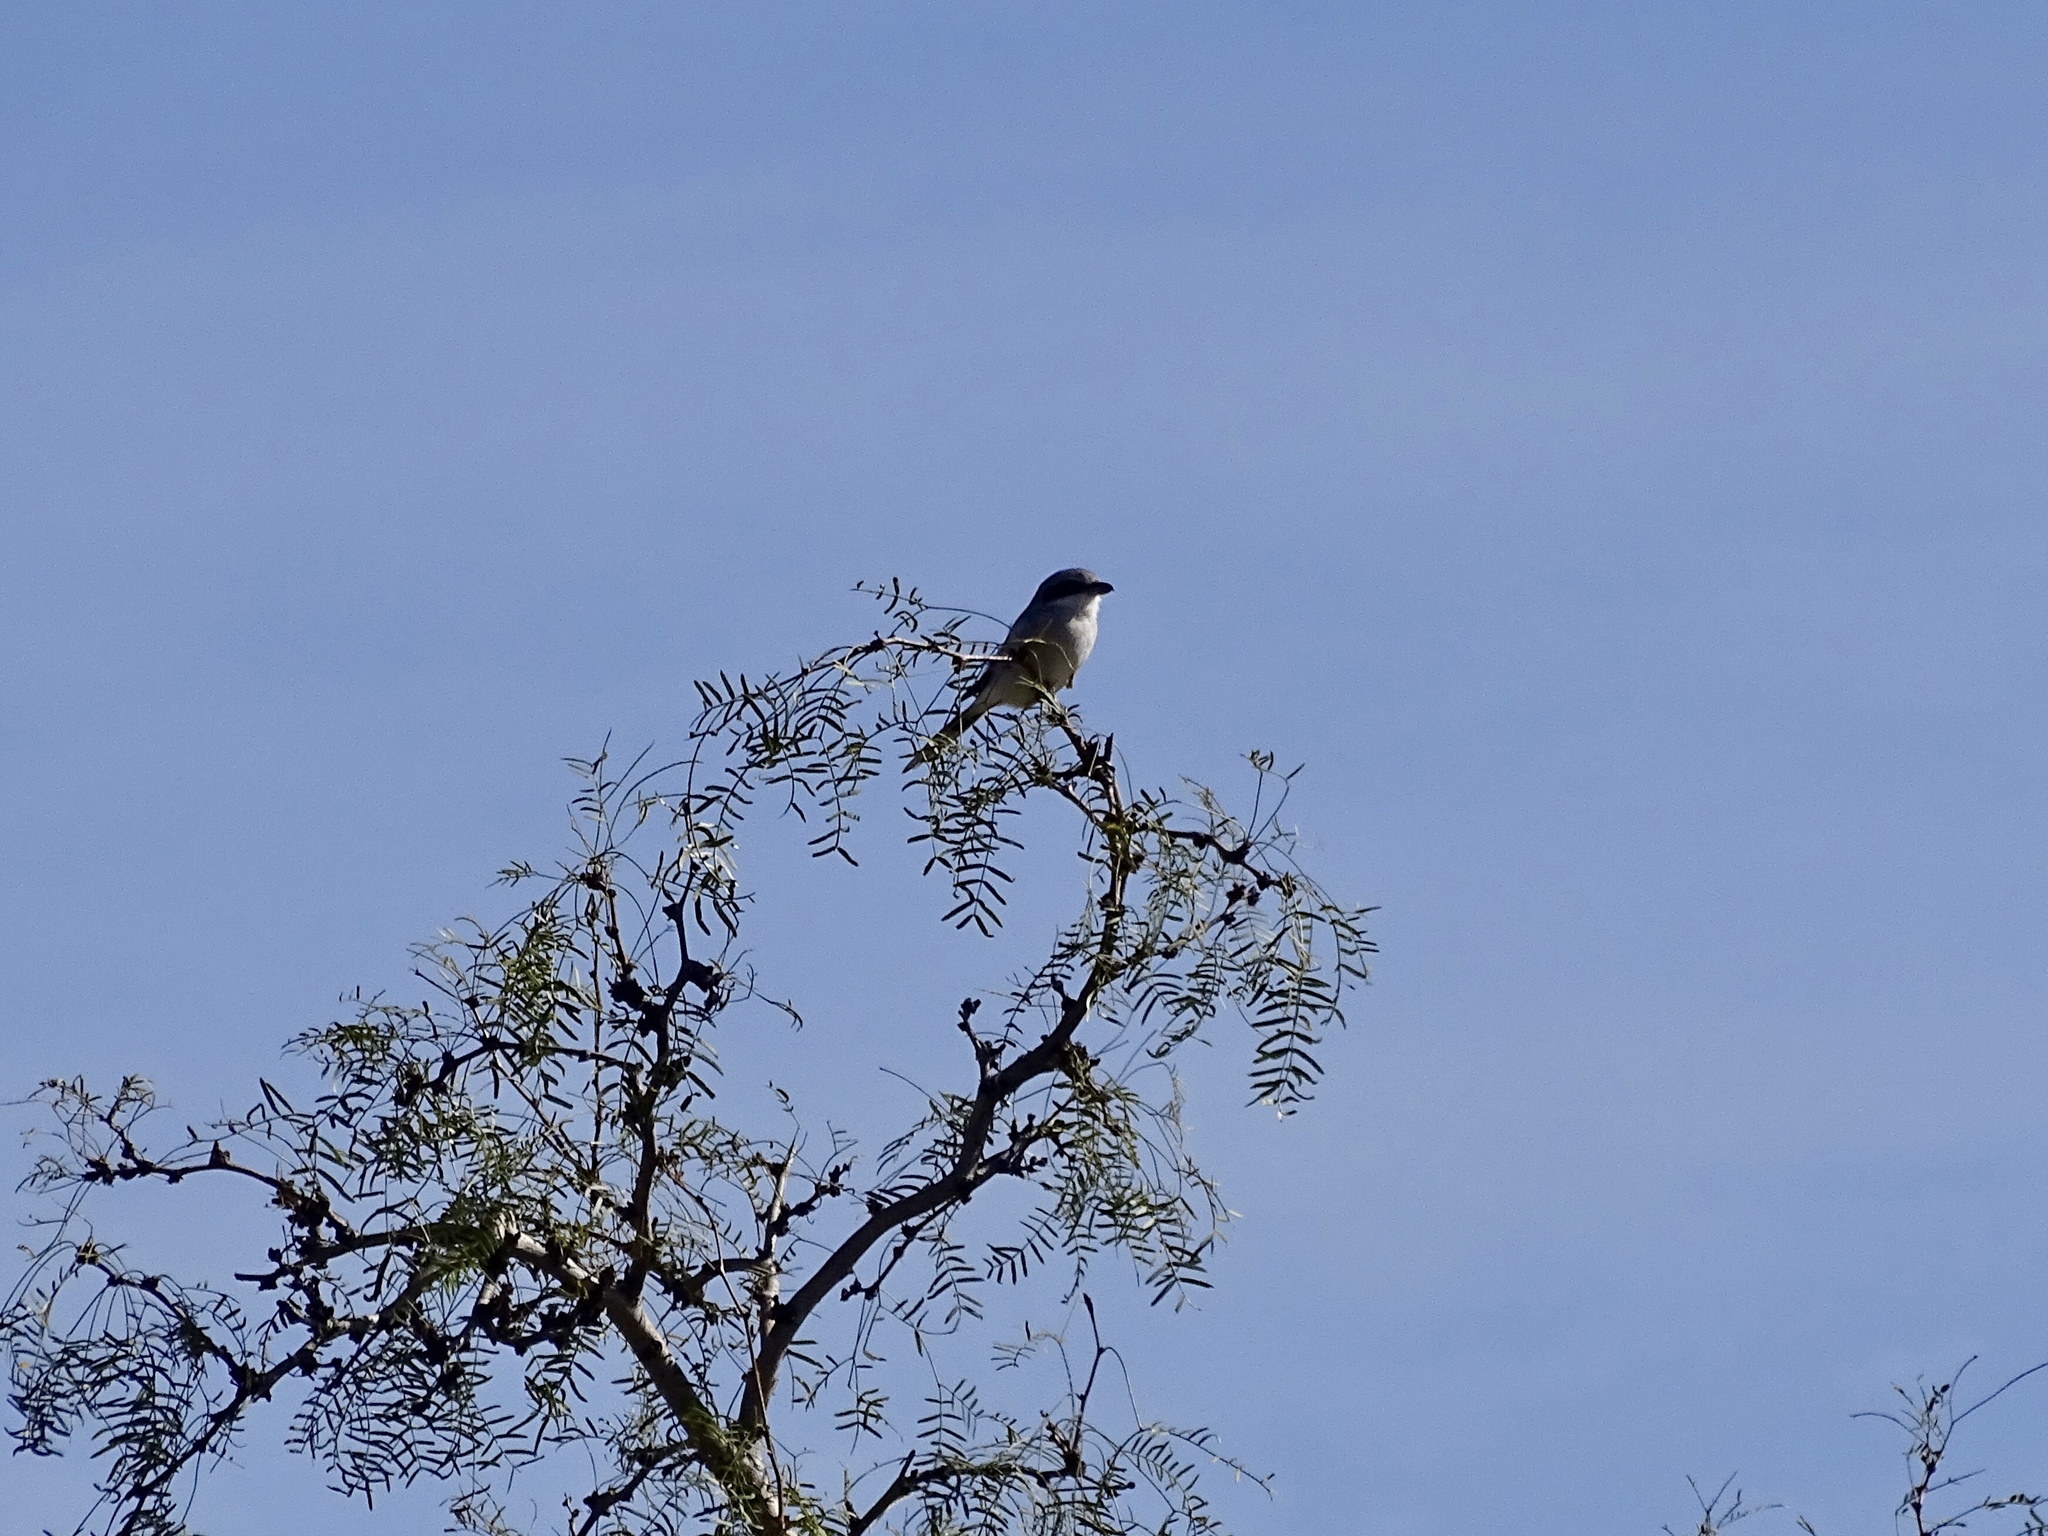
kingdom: Animalia
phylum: Chordata
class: Aves
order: Passeriformes
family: Laniidae
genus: Lanius
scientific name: Lanius ludovicianus
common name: Loggerhead shrike
